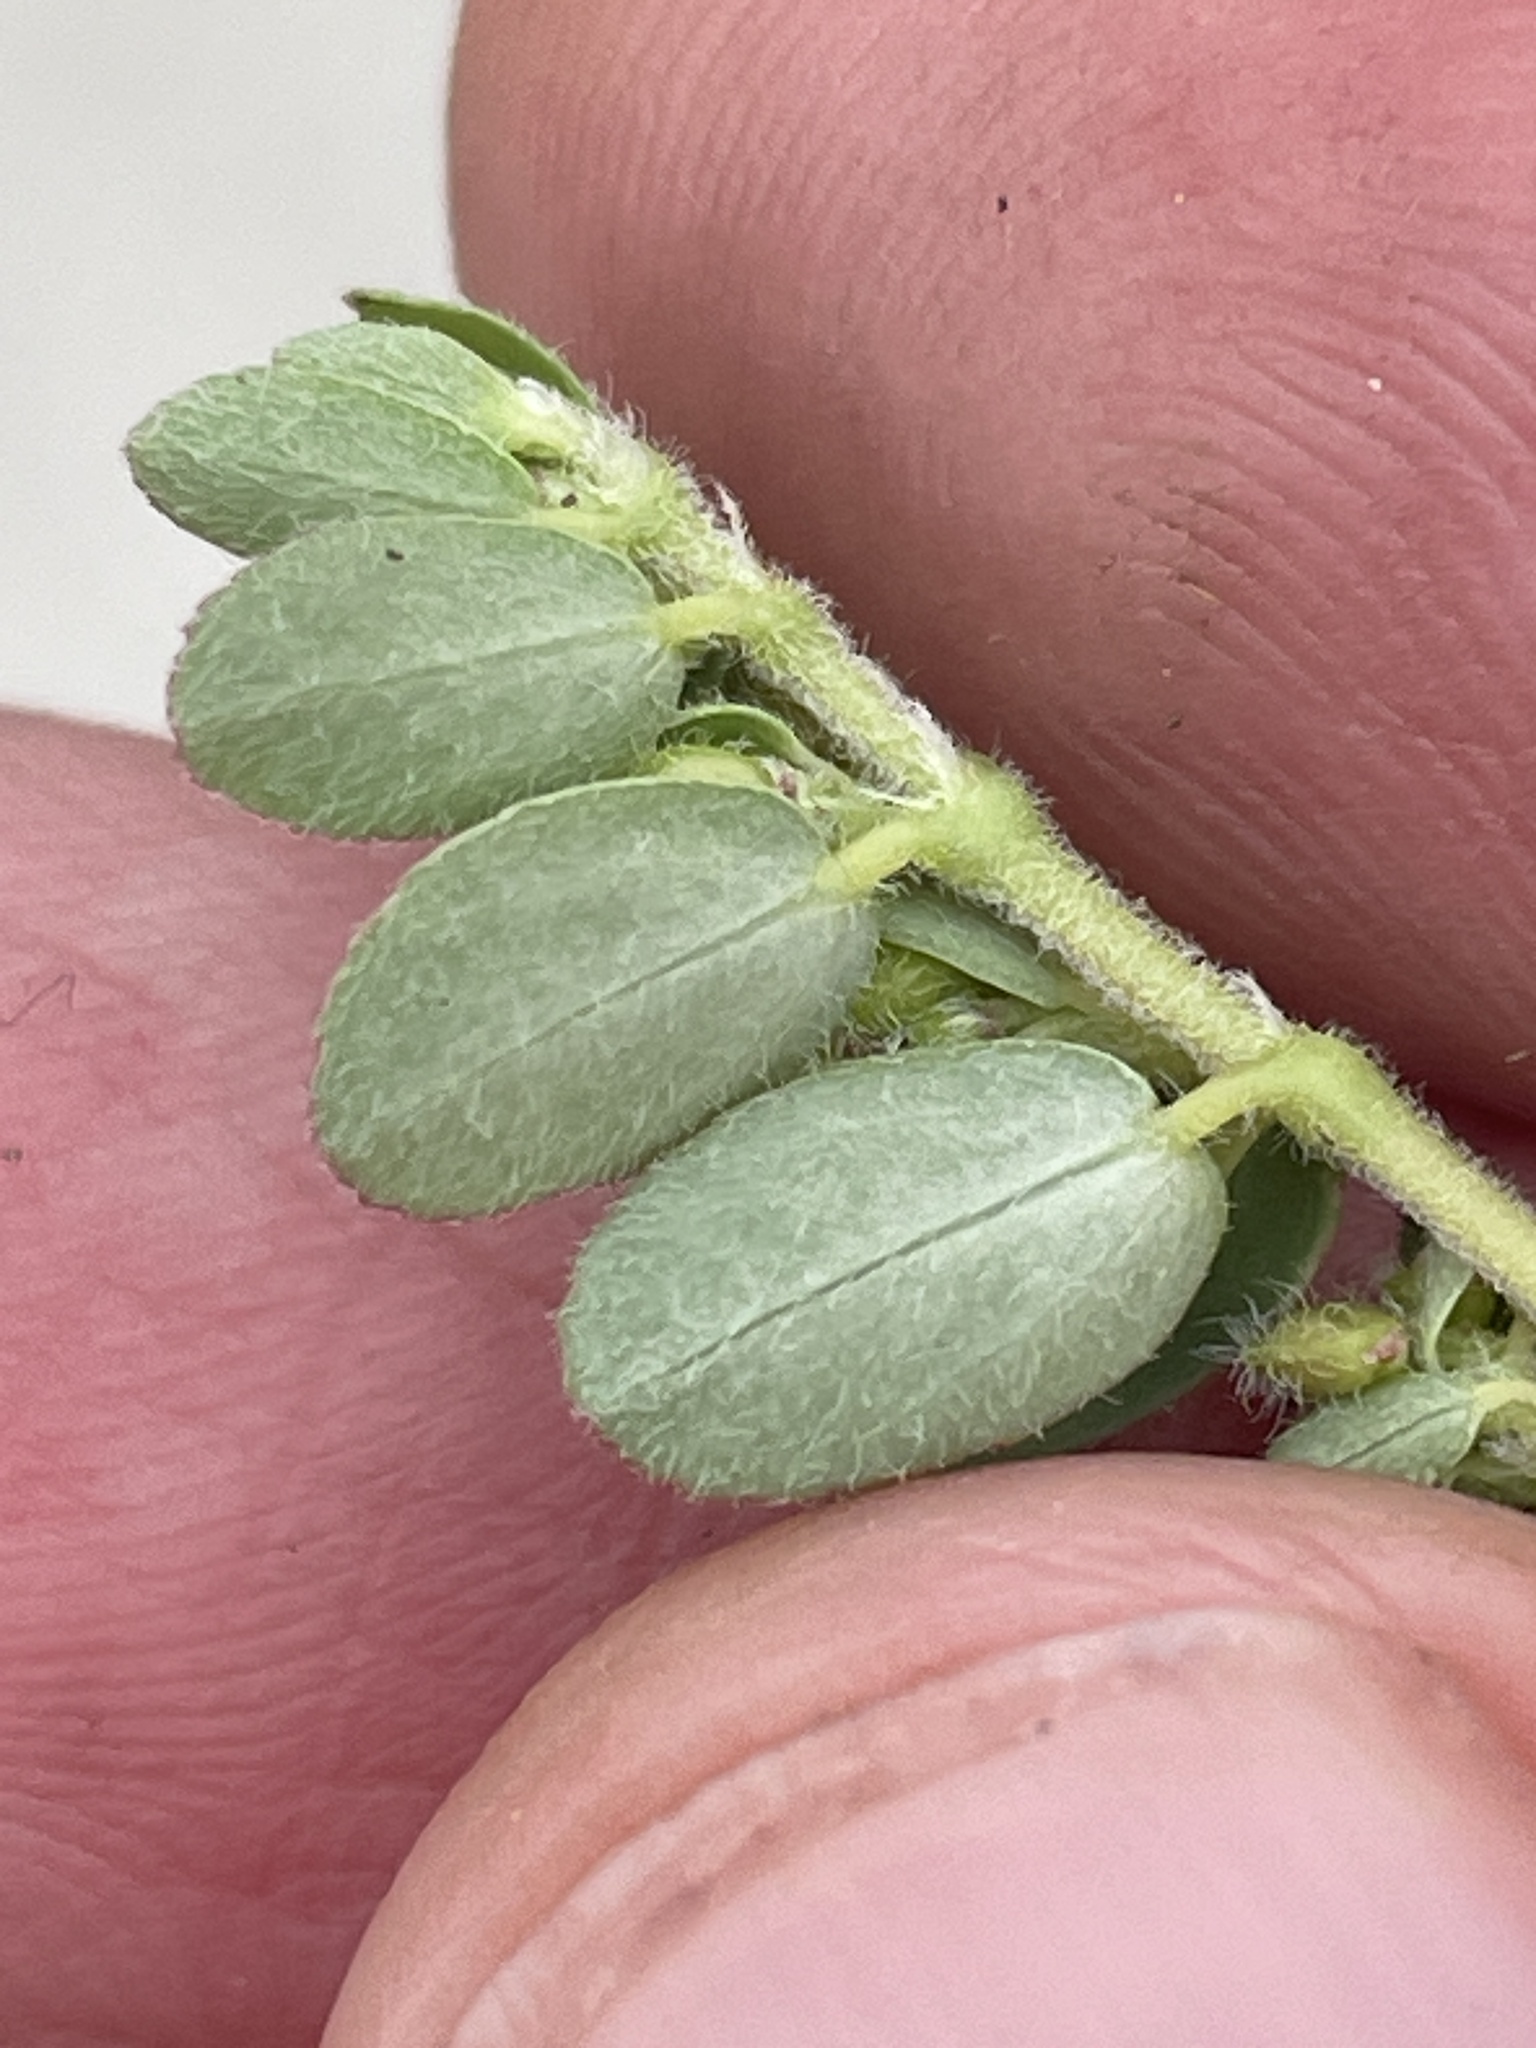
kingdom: Plantae
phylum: Tracheophyta
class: Magnoliopsida
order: Malpighiales
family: Euphorbiaceae
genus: Euphorbia
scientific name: Euphorbia prostrata
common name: Prostrate sandmat
